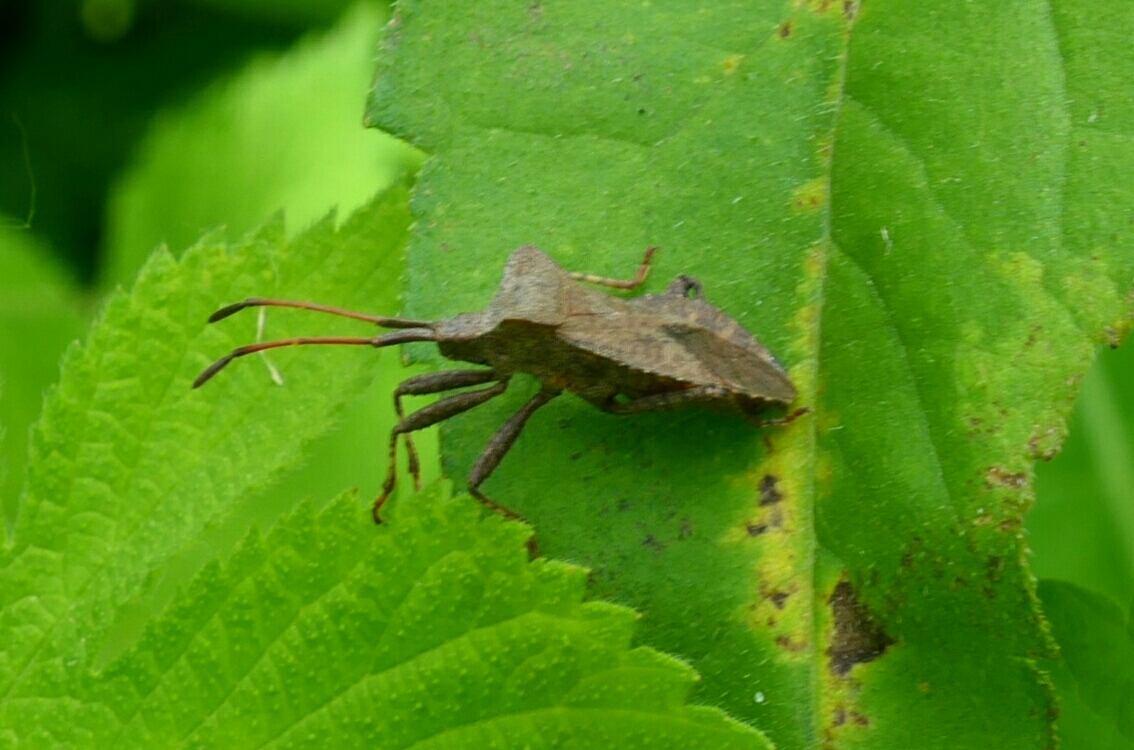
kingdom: Animalia
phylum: Arthropoda
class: Insecta
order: Hemiptera
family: Coreidae
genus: Coreus
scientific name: Coreus marginatus
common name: Dock bug
